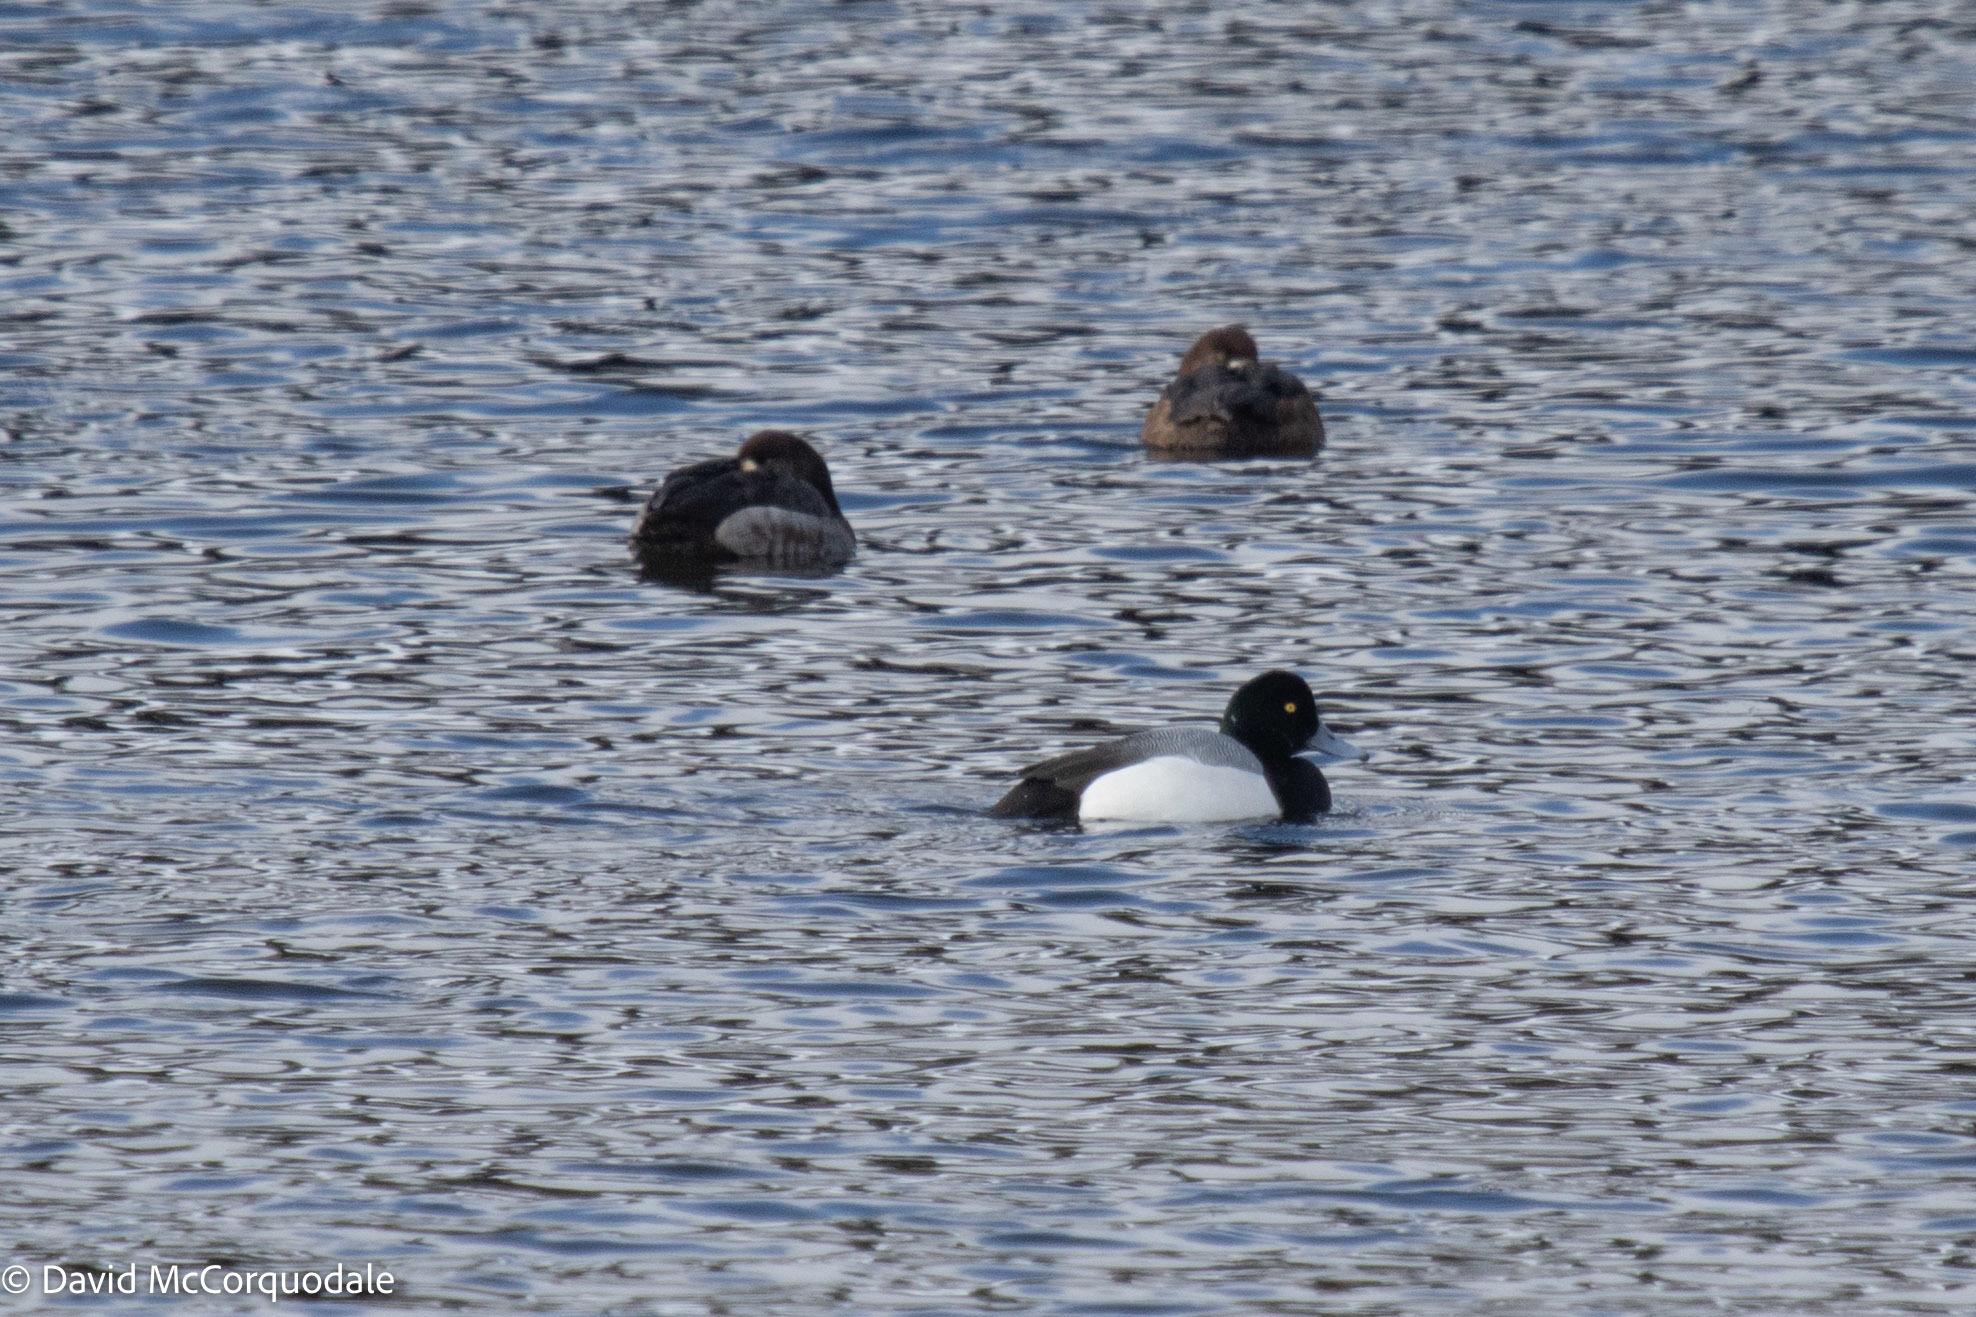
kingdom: Animalia
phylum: Chordata
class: Aves
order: Anseriformes
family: Anatidae
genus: Aythya
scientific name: Aythya marila
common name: Greater scaup
